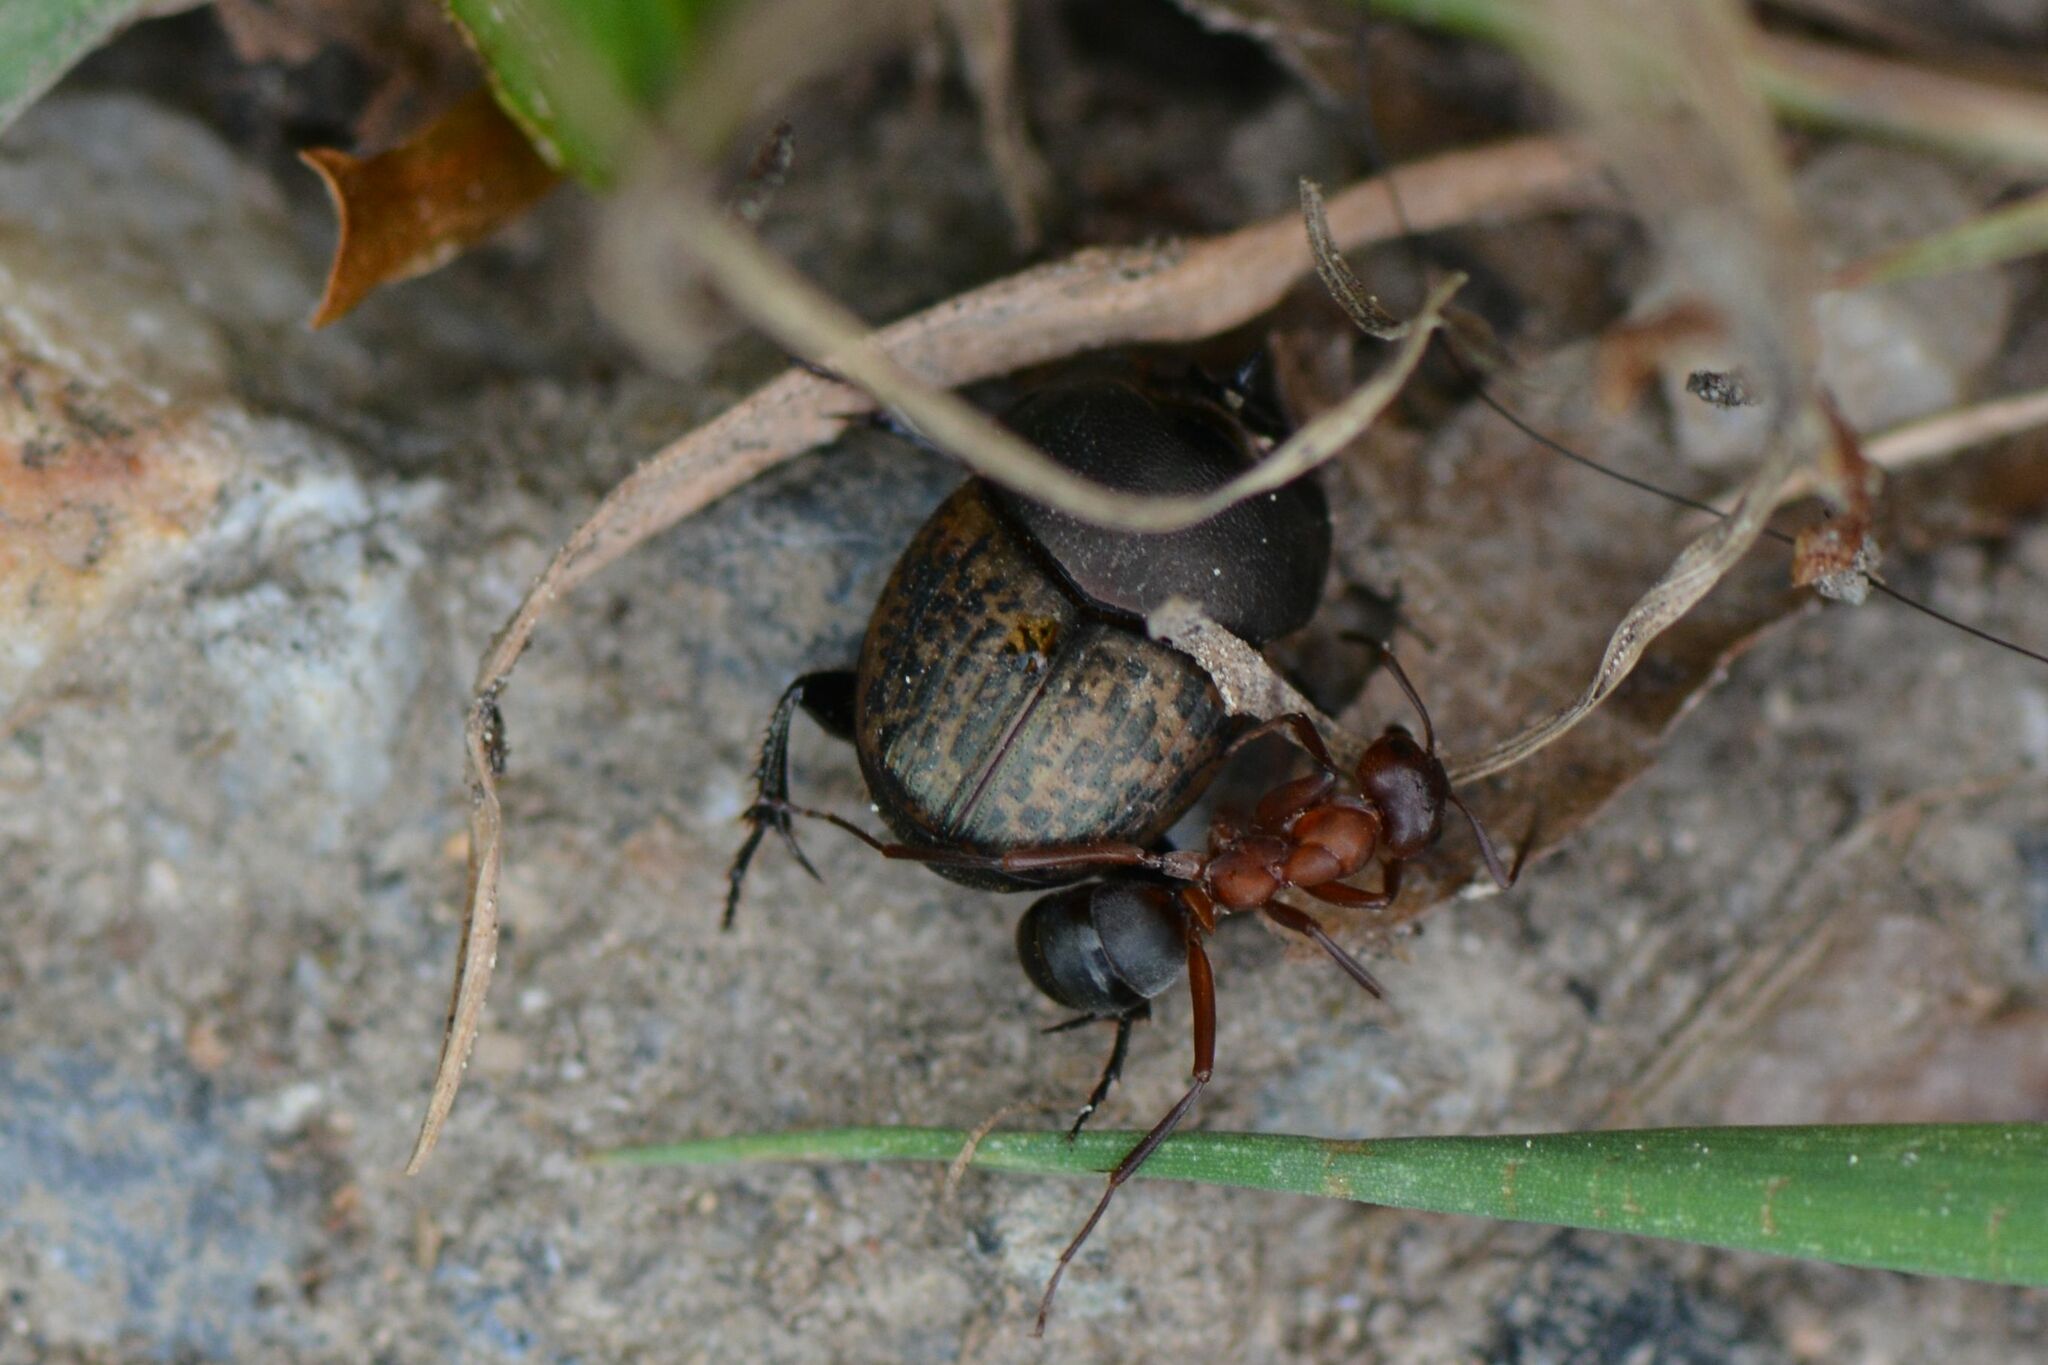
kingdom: Animalia
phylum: Arthropoda
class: Insecta
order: Hymenoptera
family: Formicidae
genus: Formica
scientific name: Formica sanguinea
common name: Blood-red ant
